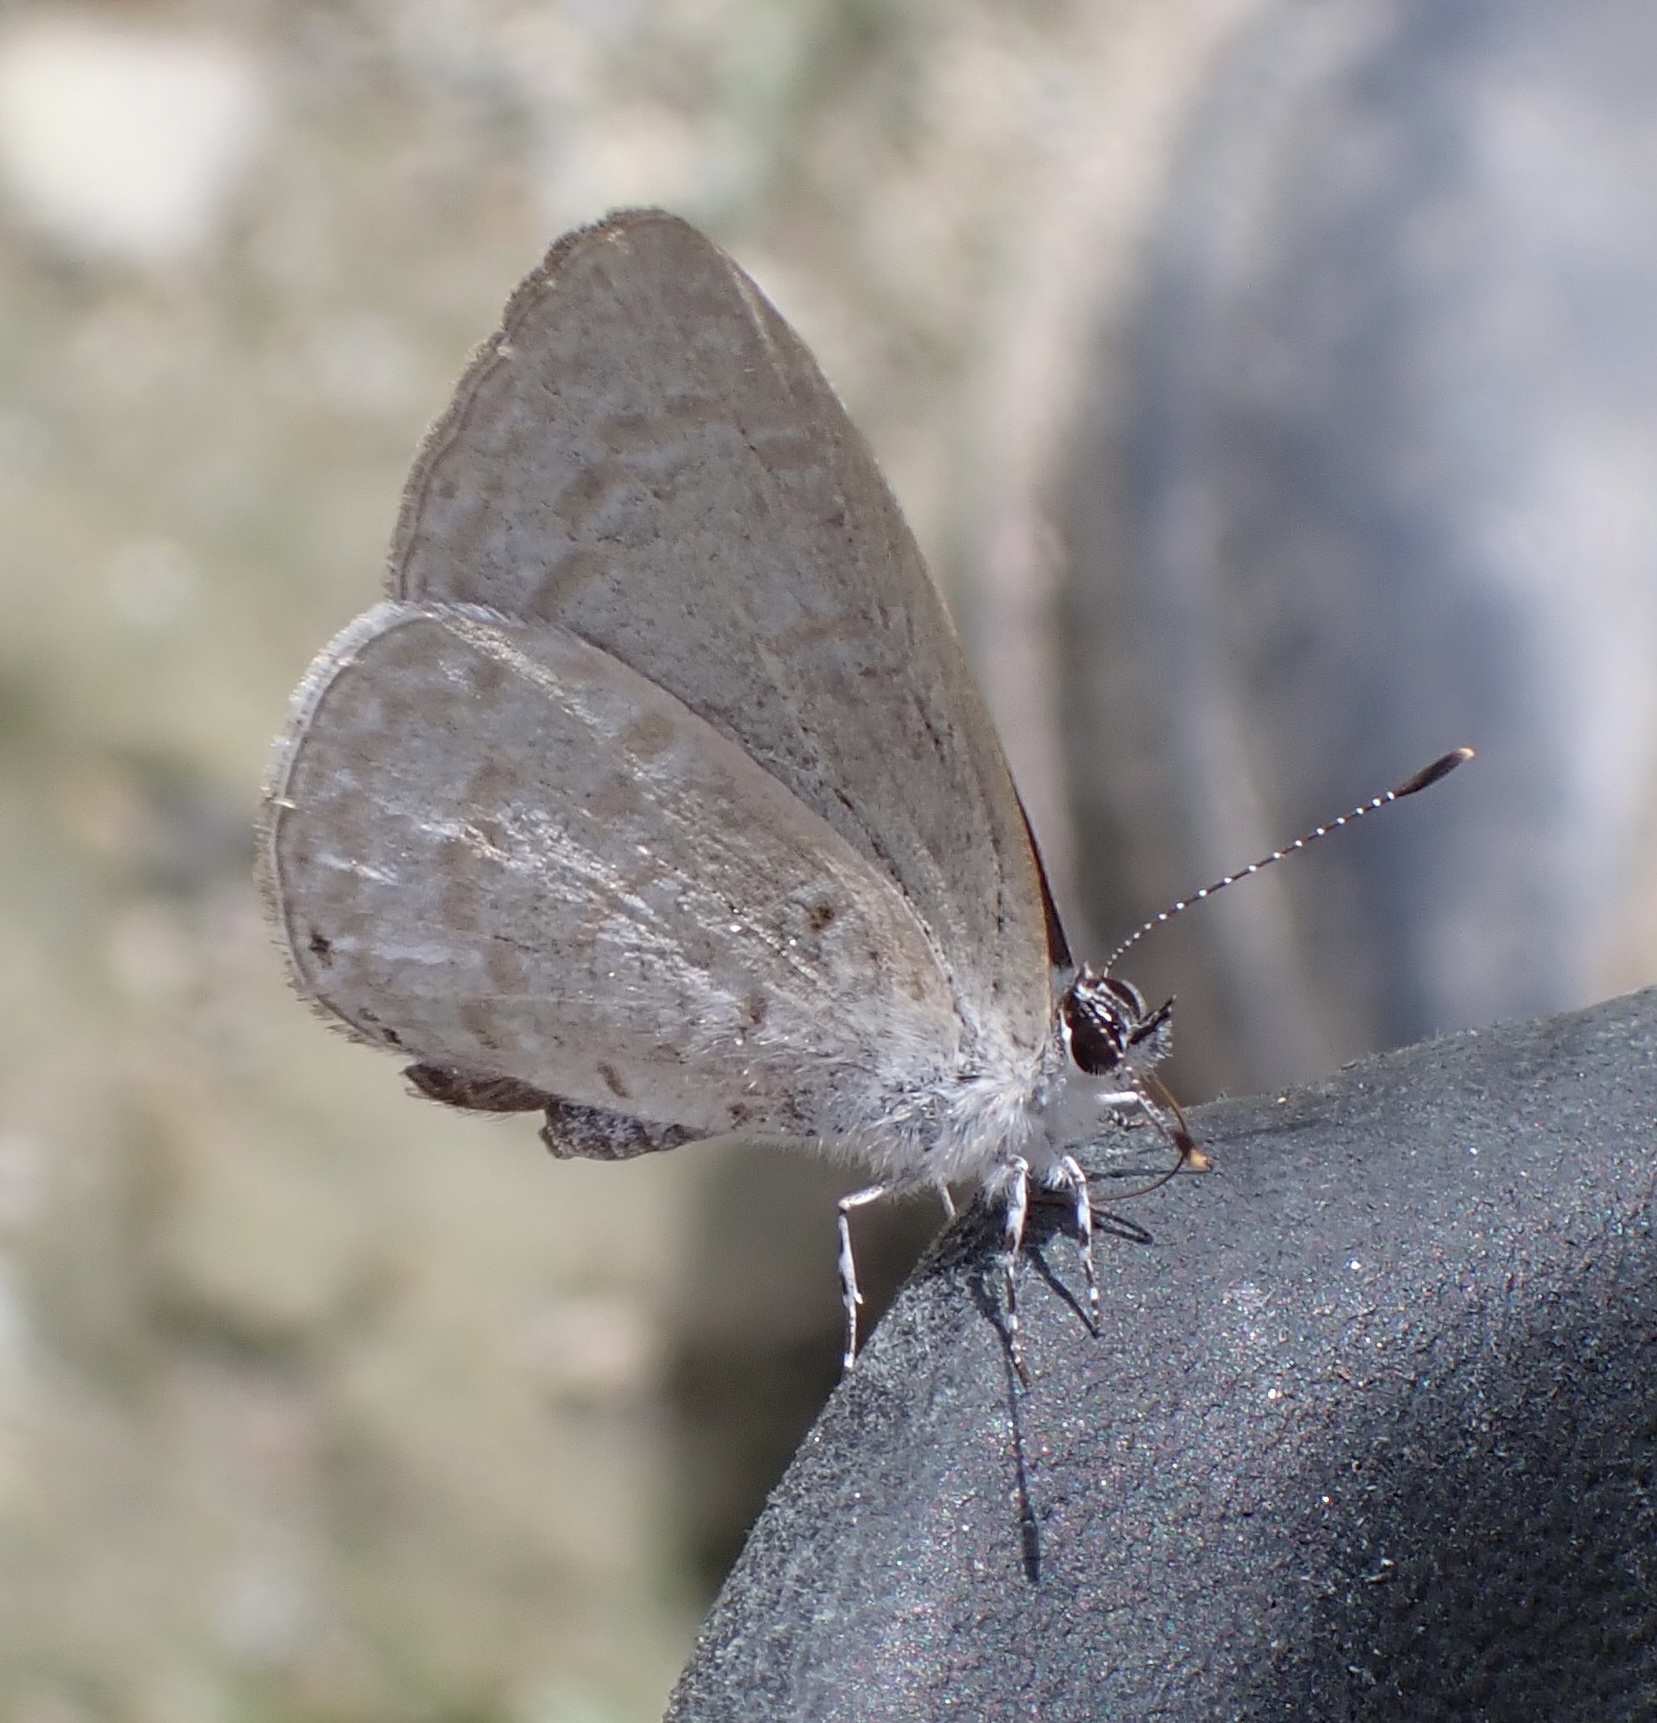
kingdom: Animalia
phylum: Arthropoda
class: Insecta
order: Lepidoptera
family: Lycaenidae
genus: Udara
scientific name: Udara
